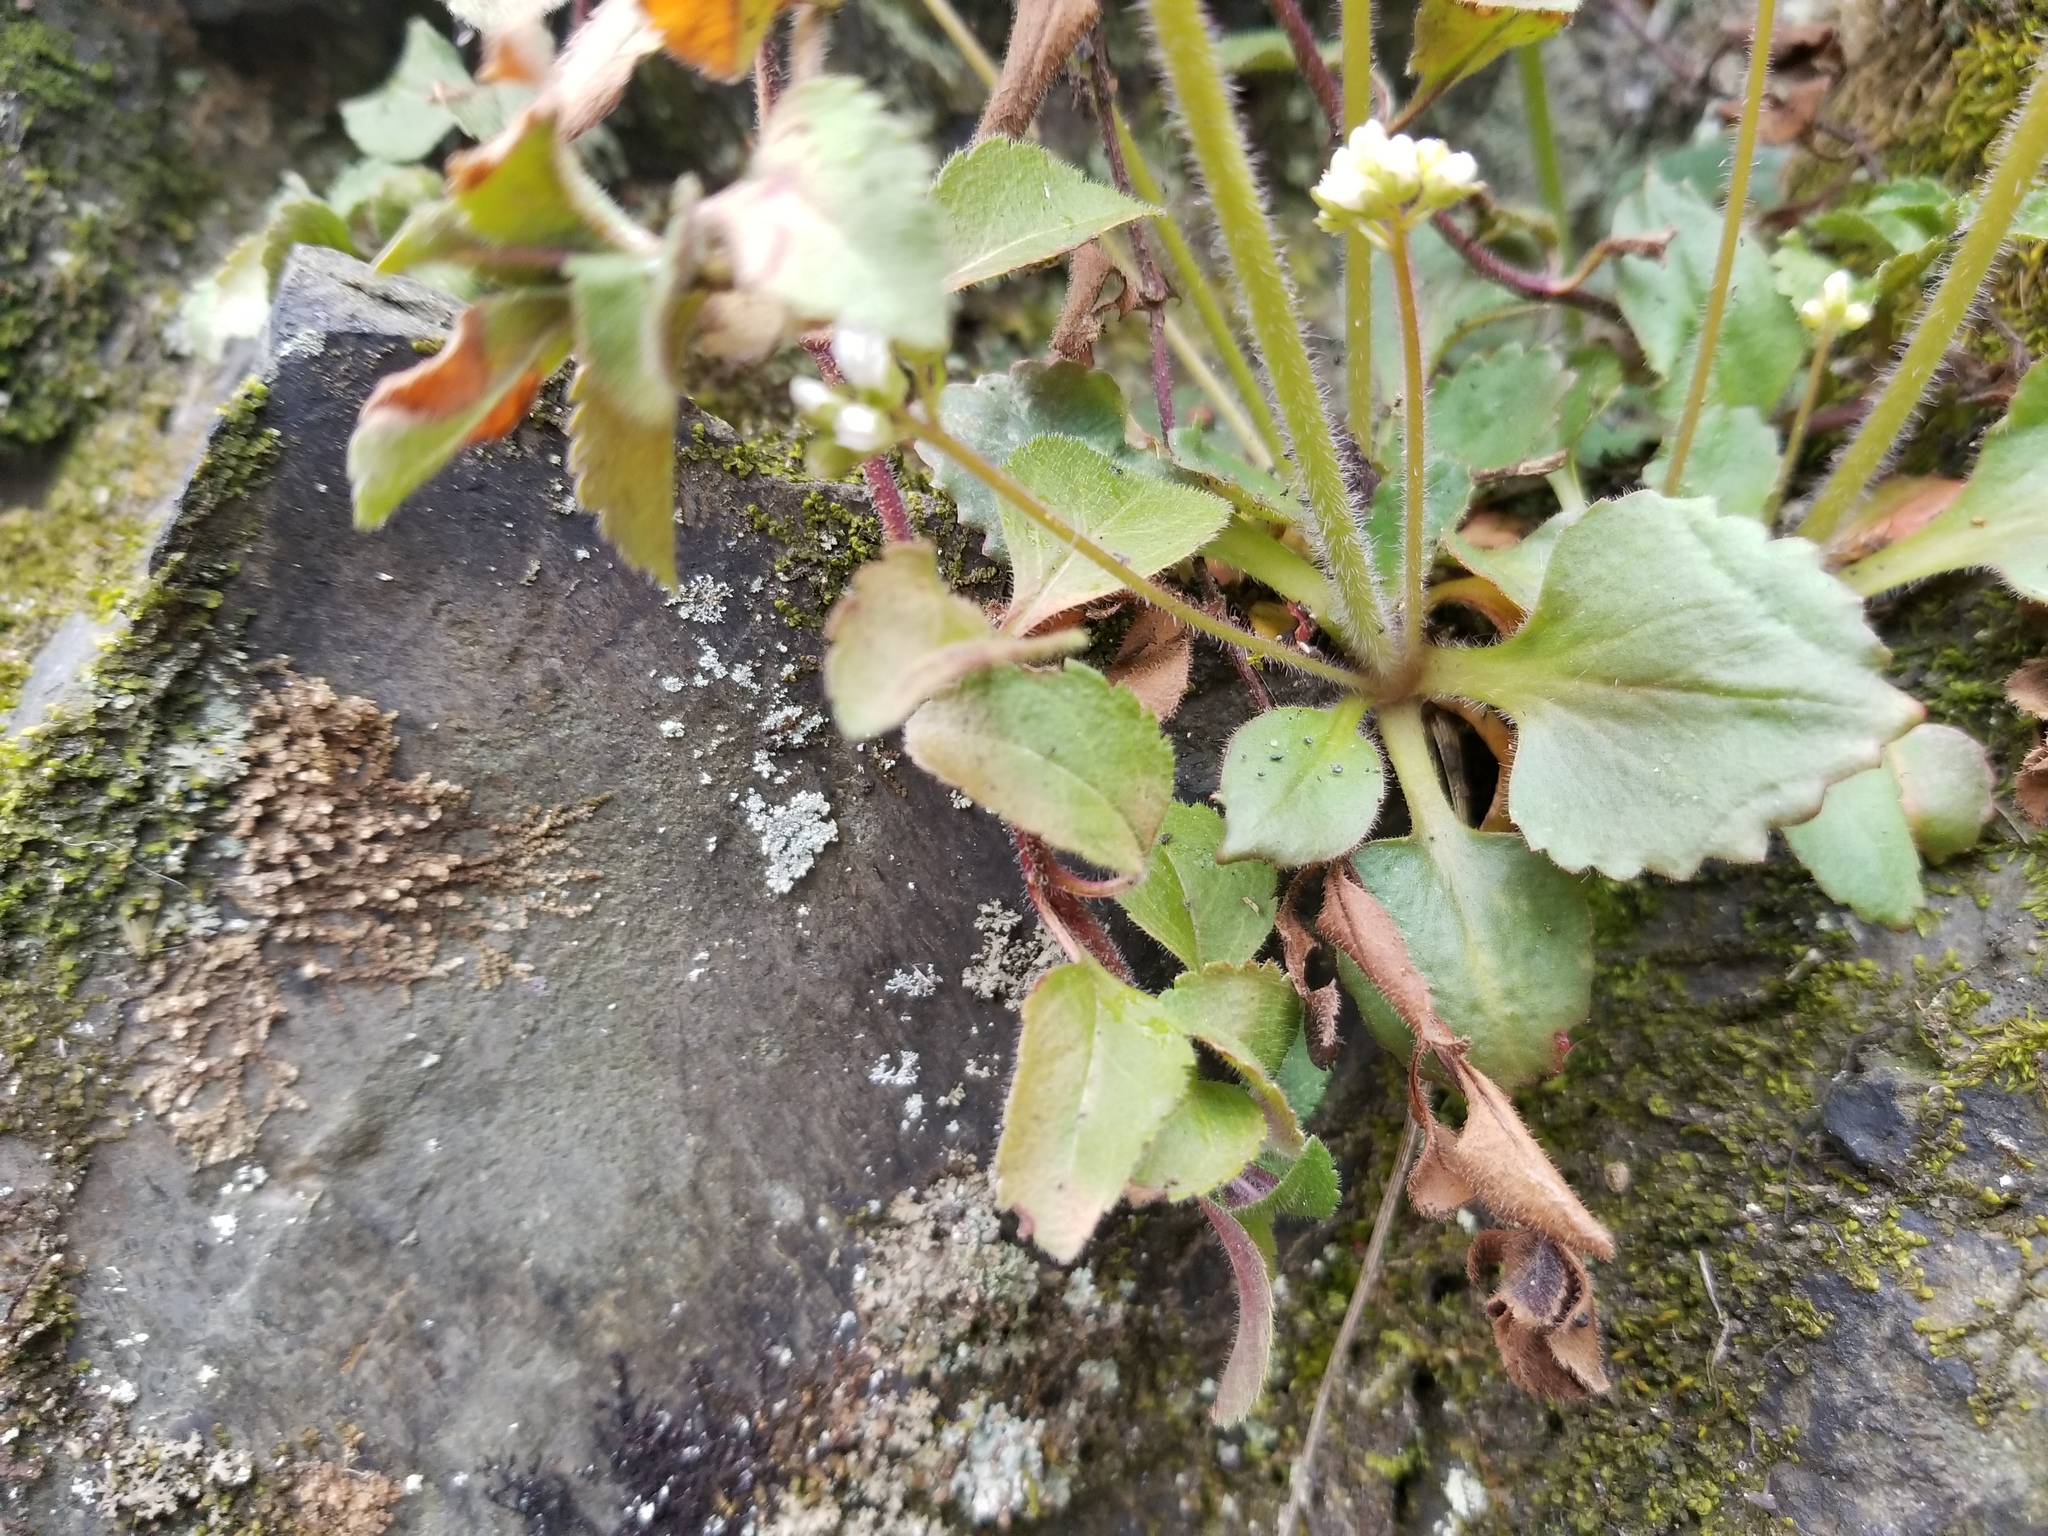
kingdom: Plantae
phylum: Tracheophyta
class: Magnoliopsida
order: Saxifragales
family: Saxifragaceae
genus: Micranthes
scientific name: Micranthes virginiensis
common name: Early saxifrage
